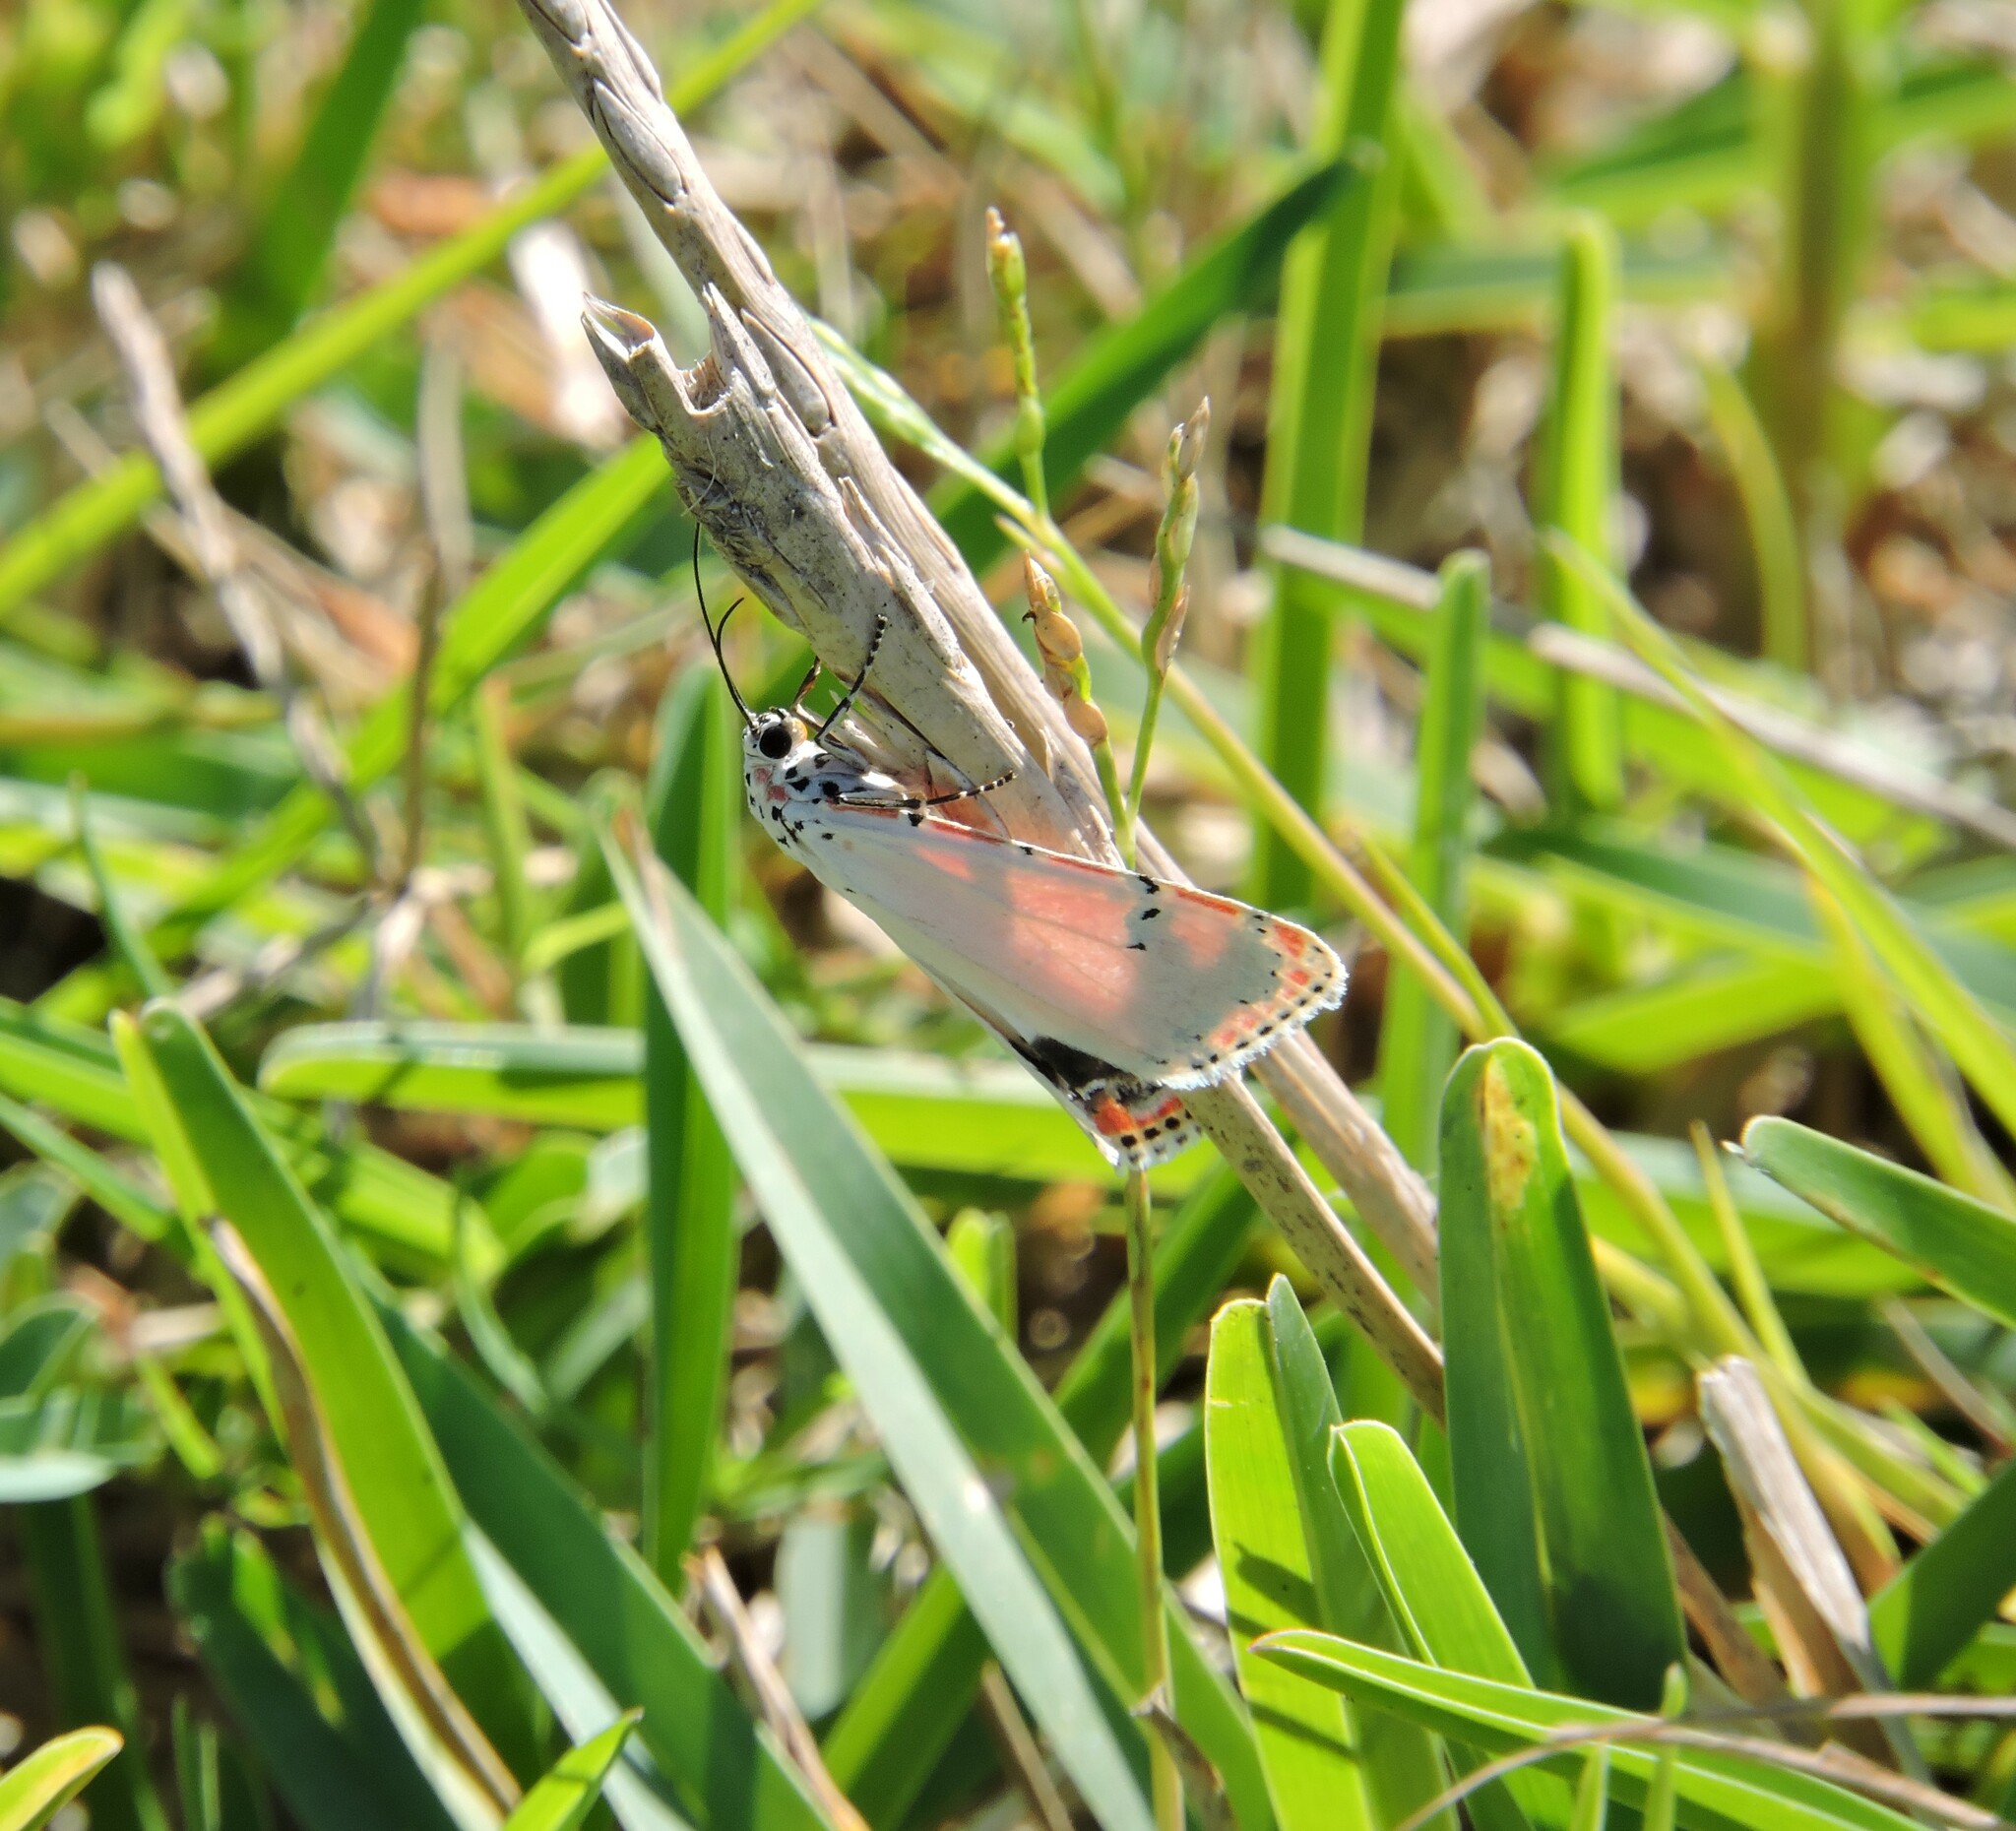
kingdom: Animalia
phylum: Arthropoda
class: Insecta
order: Lepidoptera
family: Erebidae
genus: Utetheisa
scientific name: Utetheisa ornatrix
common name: Beautiful utetheisa
